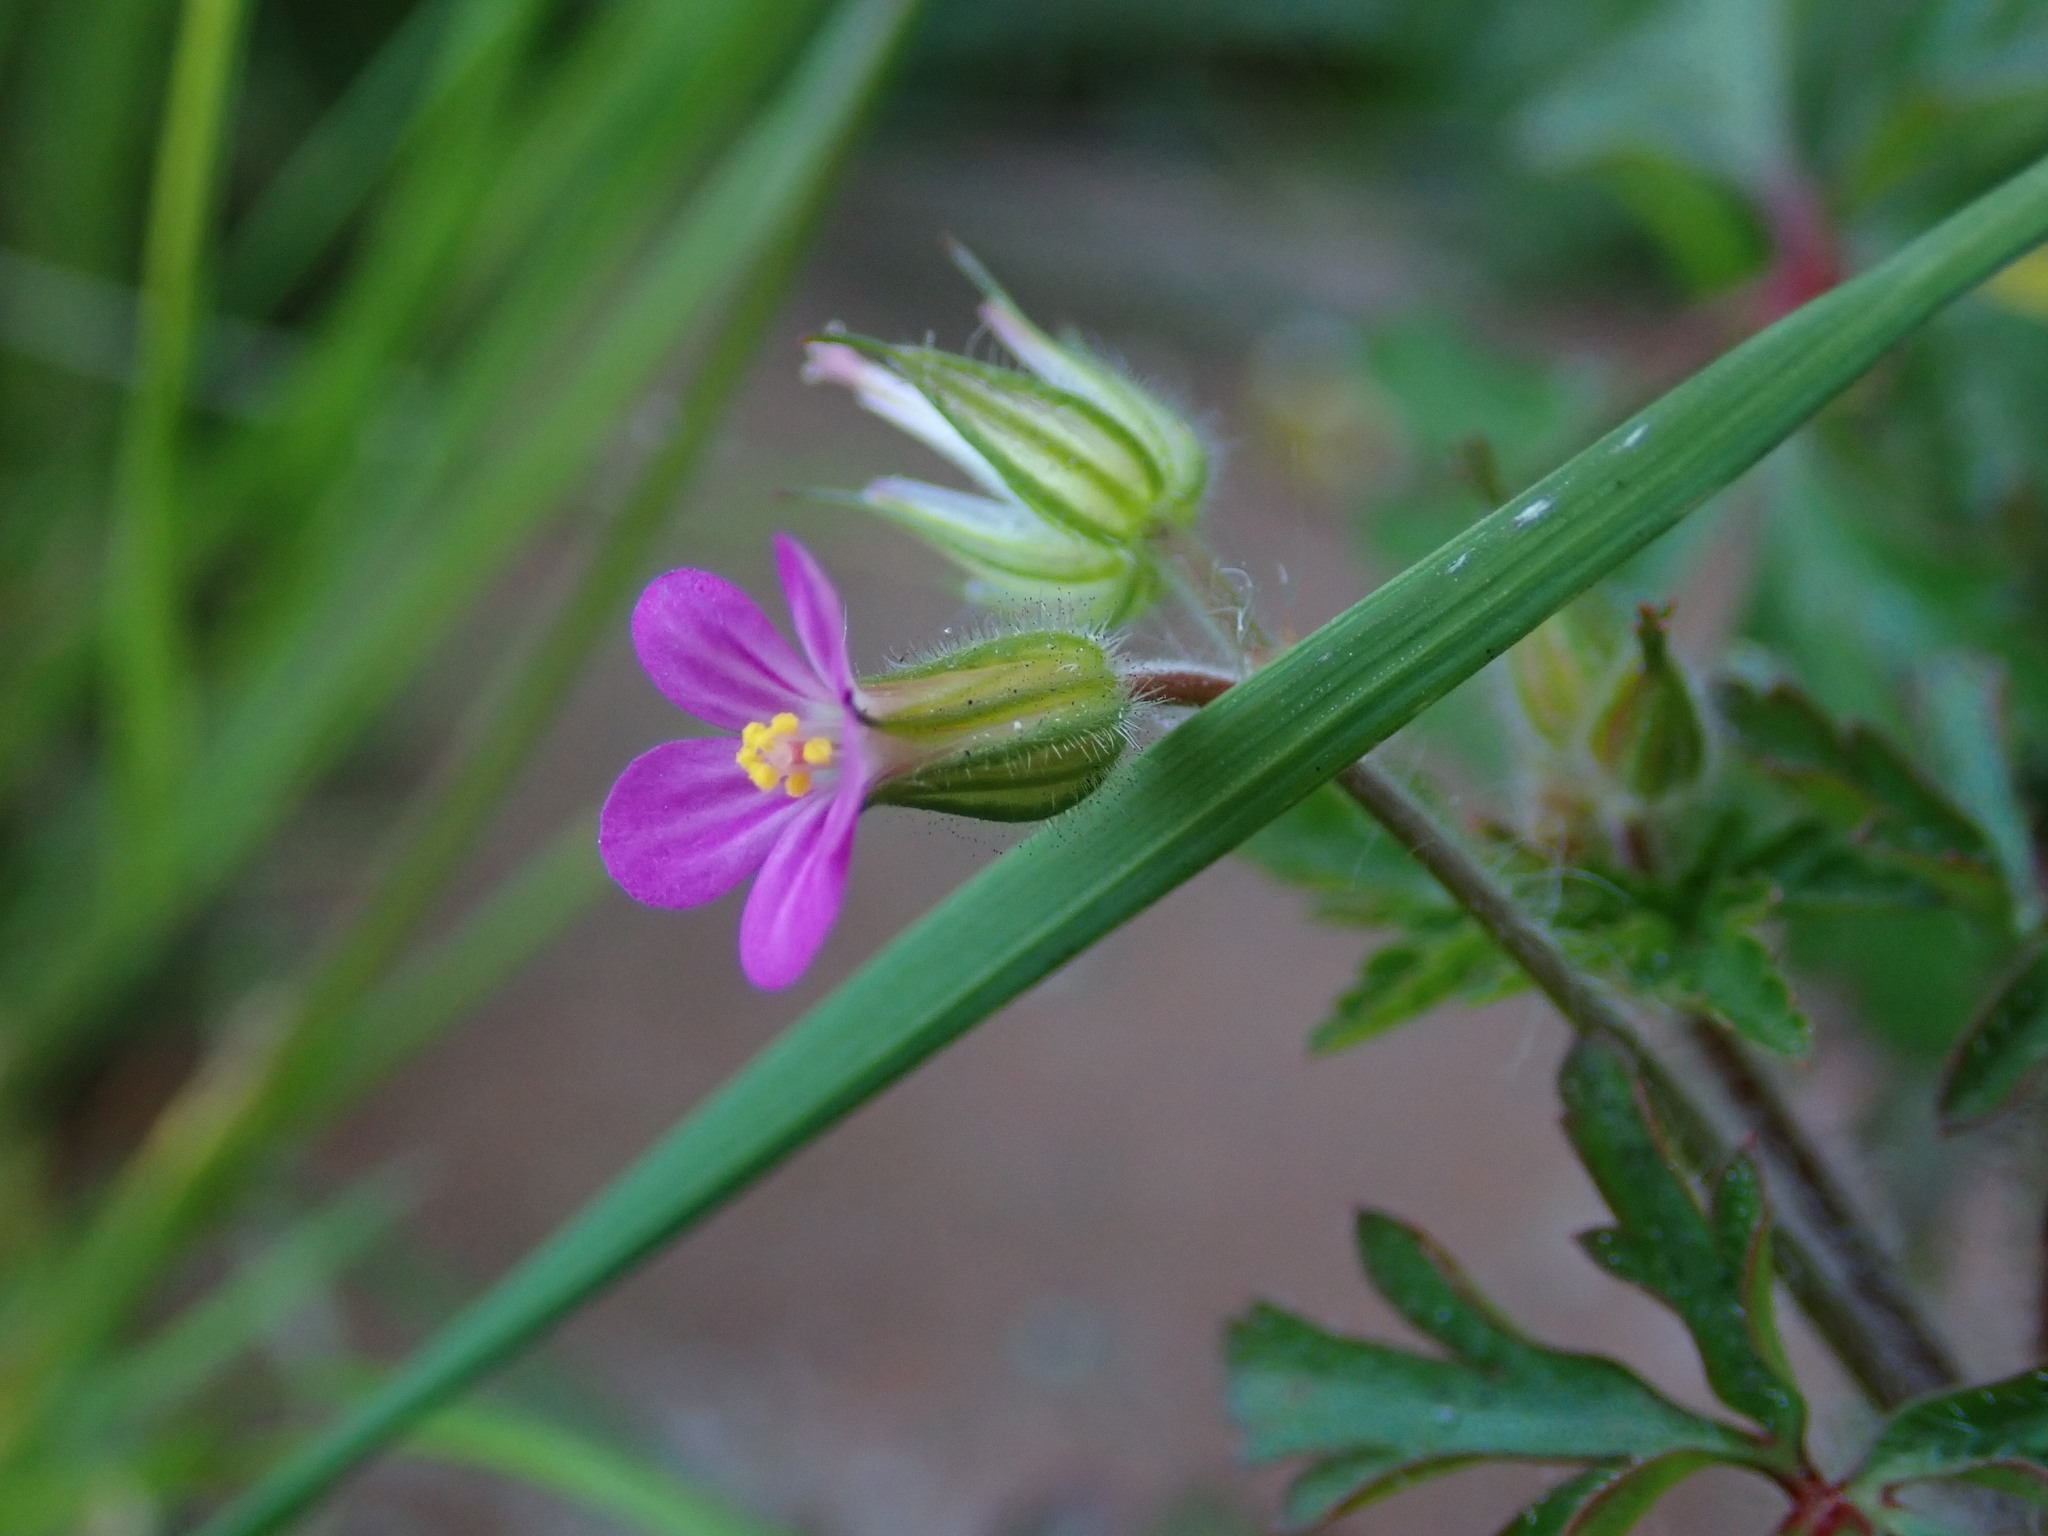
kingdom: Plantae
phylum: Tracheophyta
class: Magnoliopsida
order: Geraniales
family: Geraniaceae
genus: Geranium
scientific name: Geranium purpureum
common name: Little-robin
